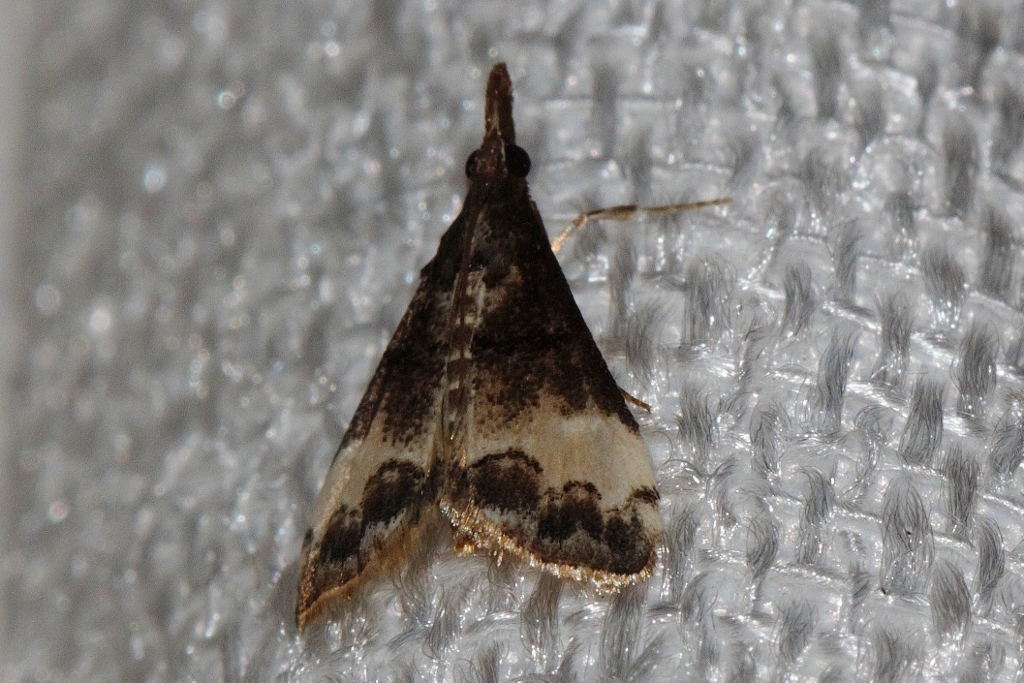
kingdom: Animalia
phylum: Arthropoda
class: Insecta
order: Lepidoptera
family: Crambidae
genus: Autocharis
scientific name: Autocharis albiplaga
